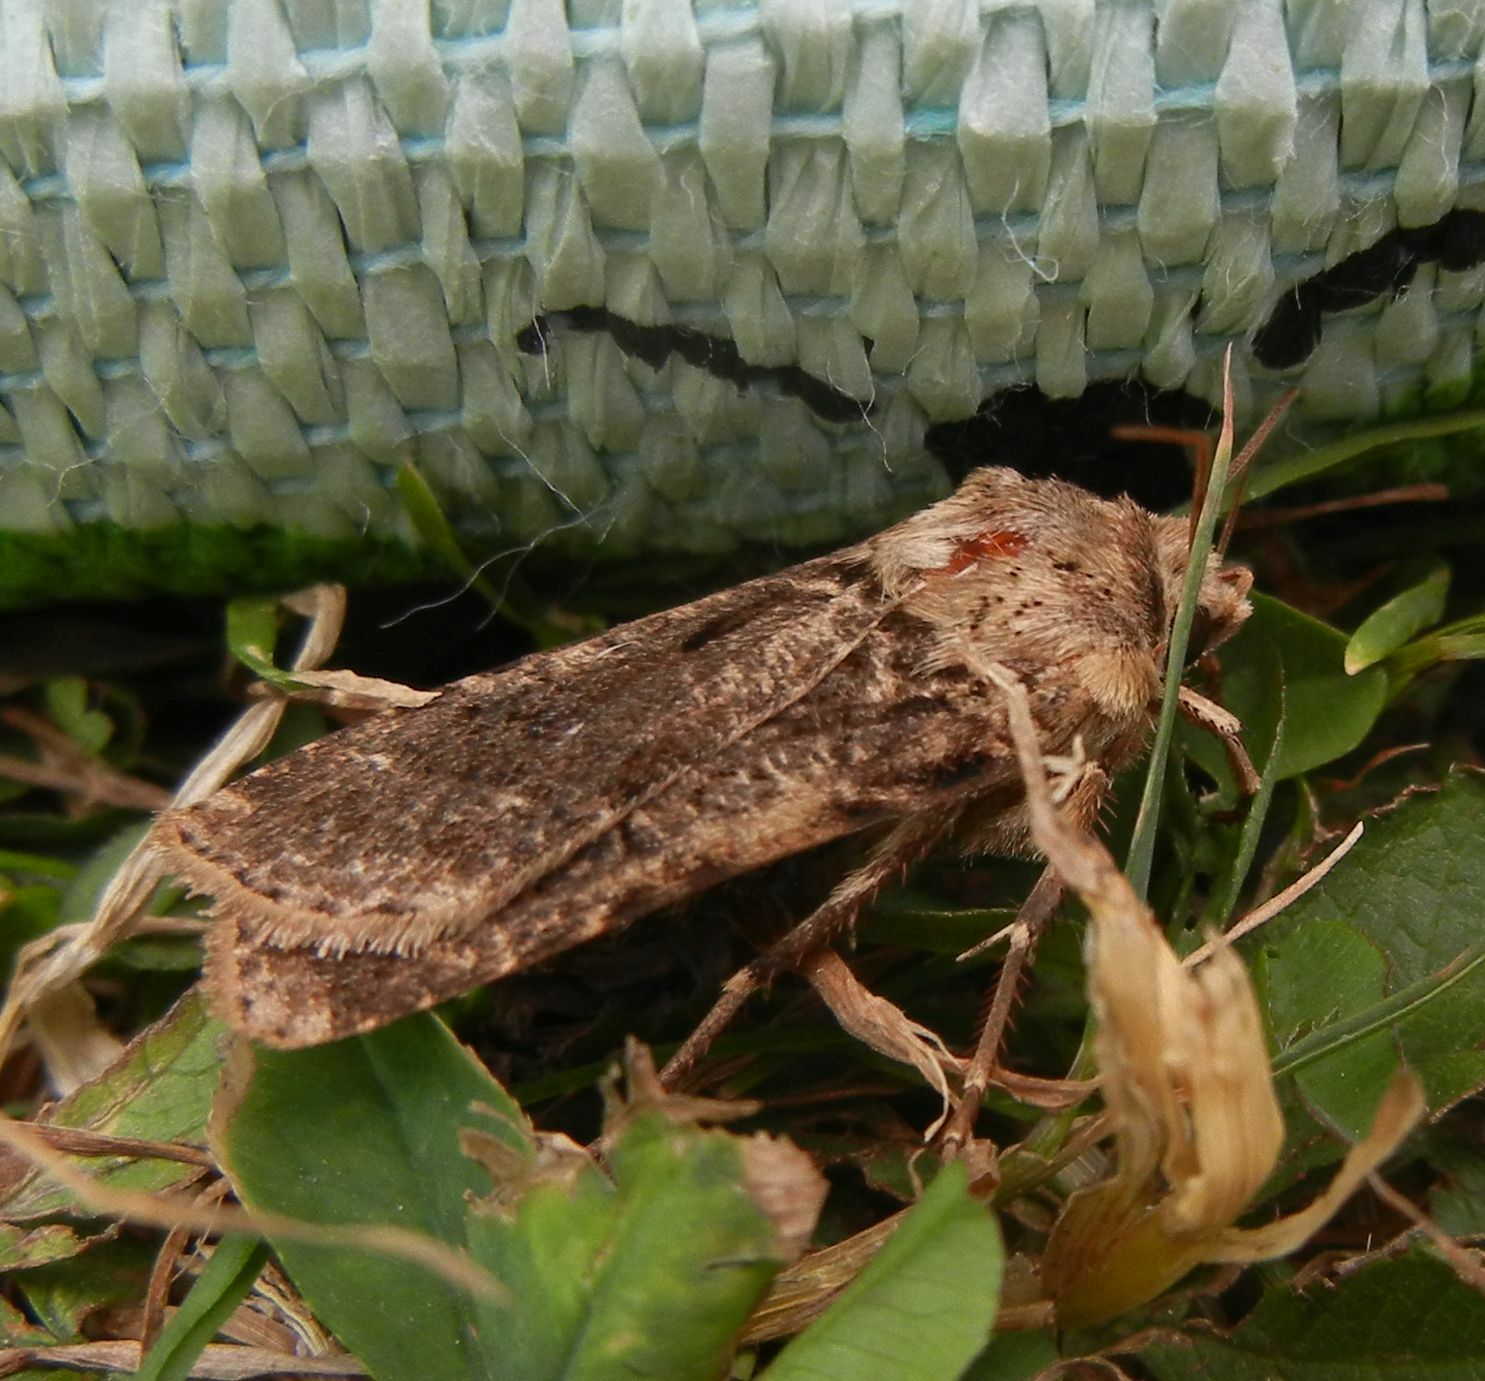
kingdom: Animalia
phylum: Arthropoda
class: Insecta
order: Lepidoptera
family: Noctuidae
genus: Agrotis
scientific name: Agrotis segetum
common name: Turnip moth
